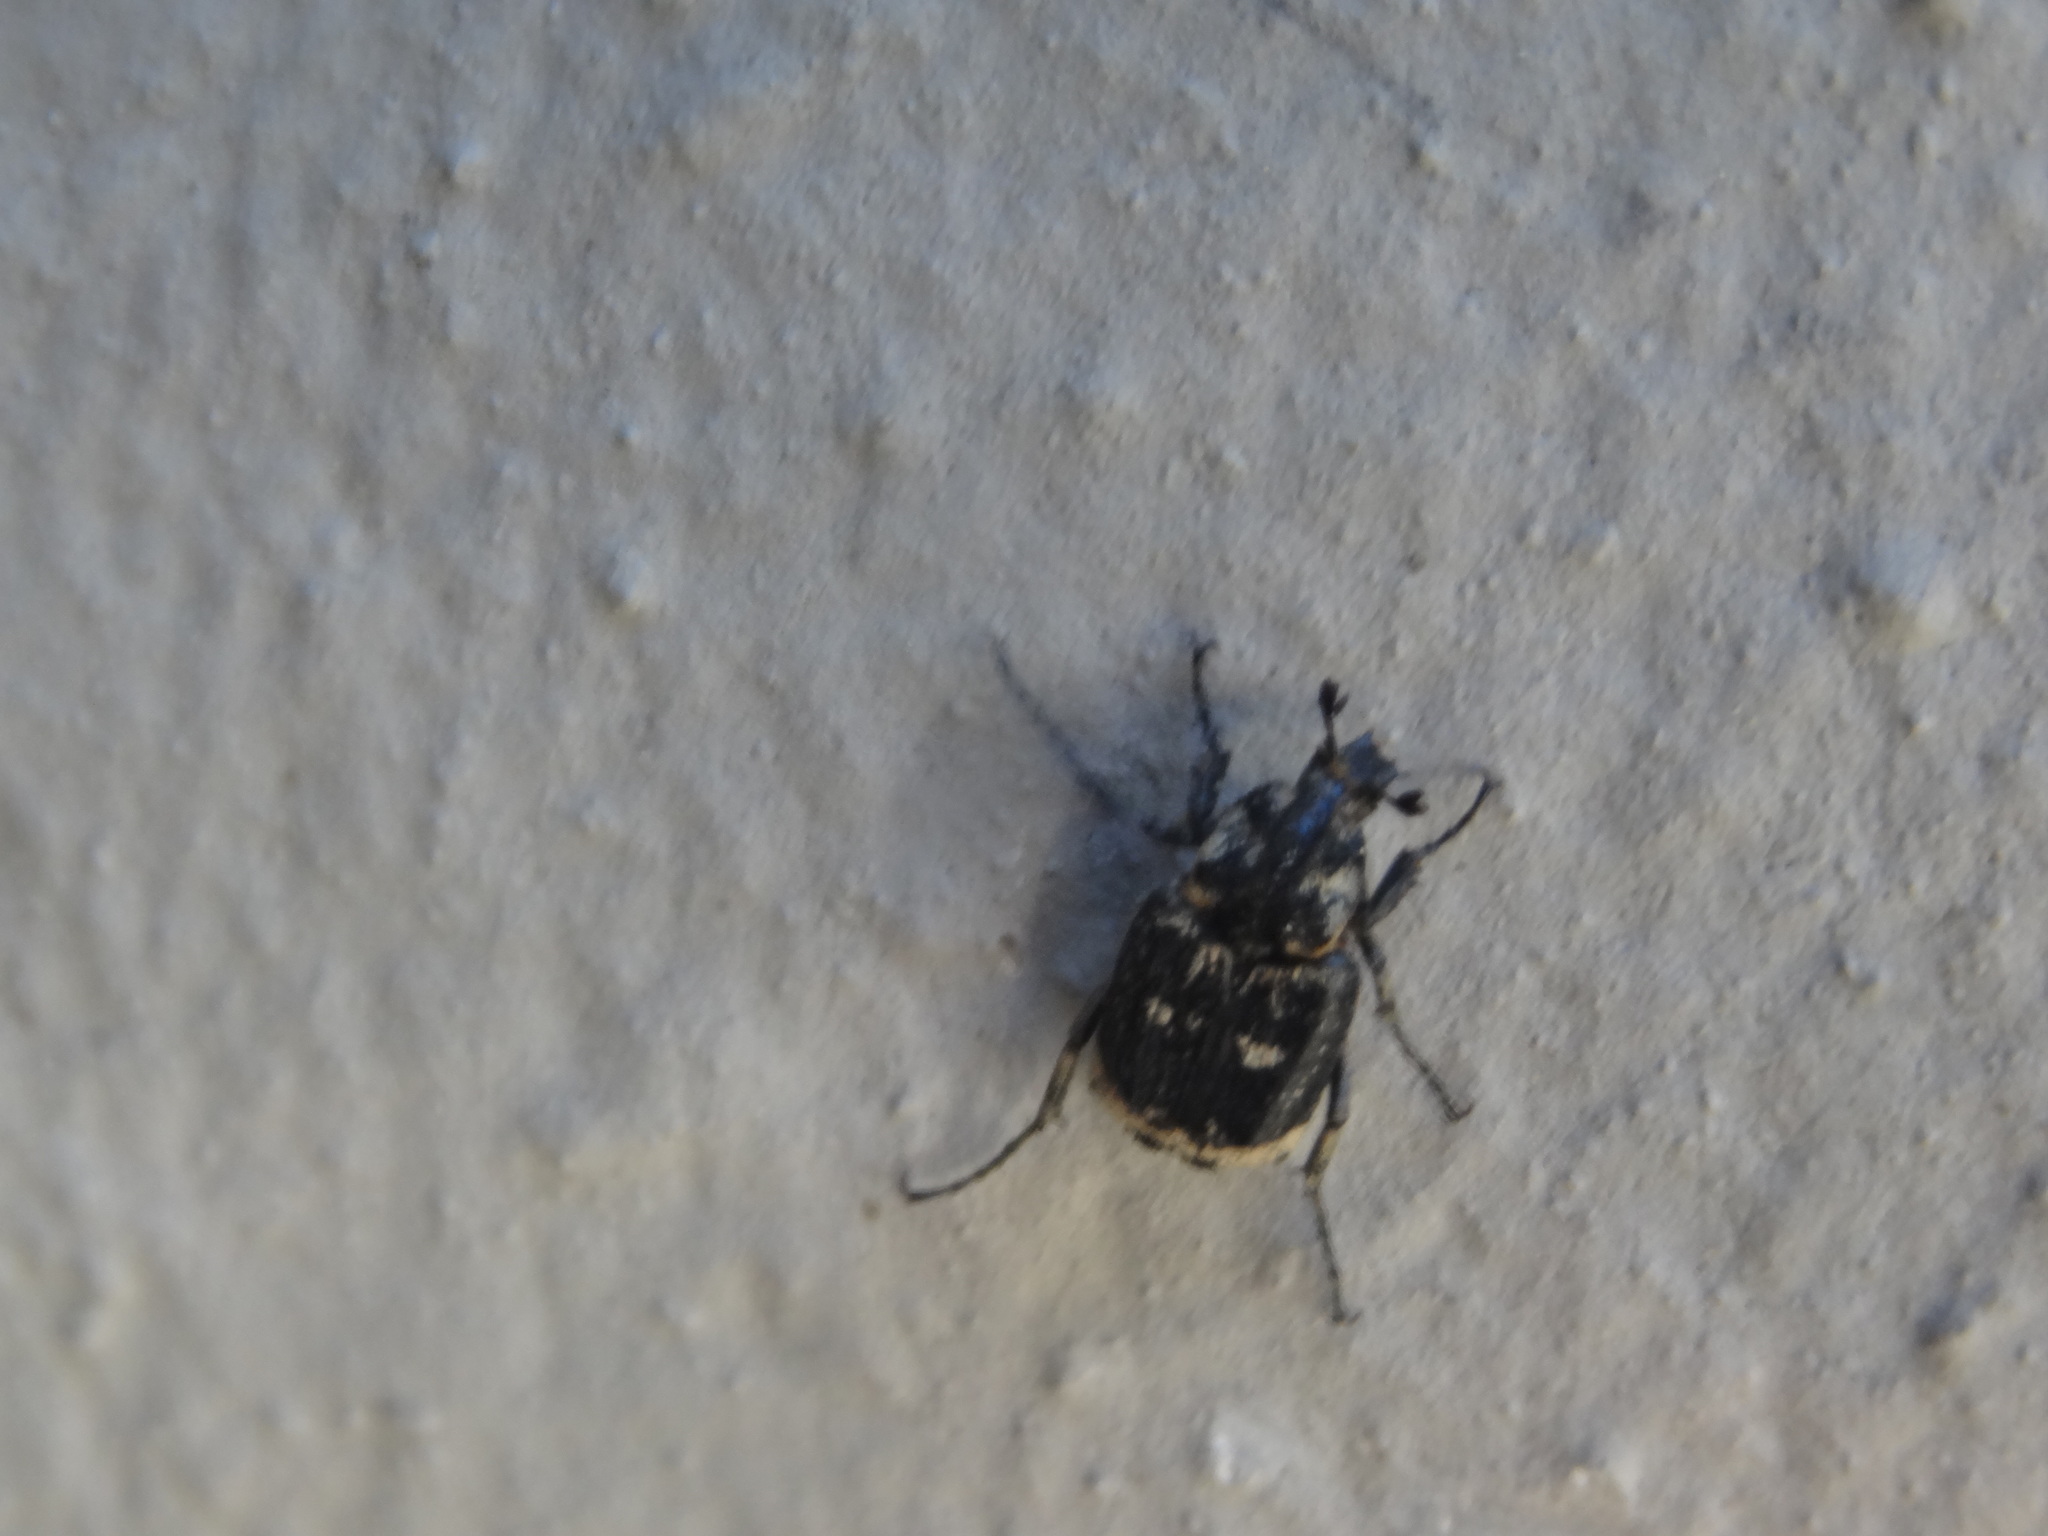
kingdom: Animalia
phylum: Arthropoda
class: Insecta
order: Coleoptera
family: Scarabaeidae
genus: Valgus
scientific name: Valgus hemipterus
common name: Bug flower chafer
